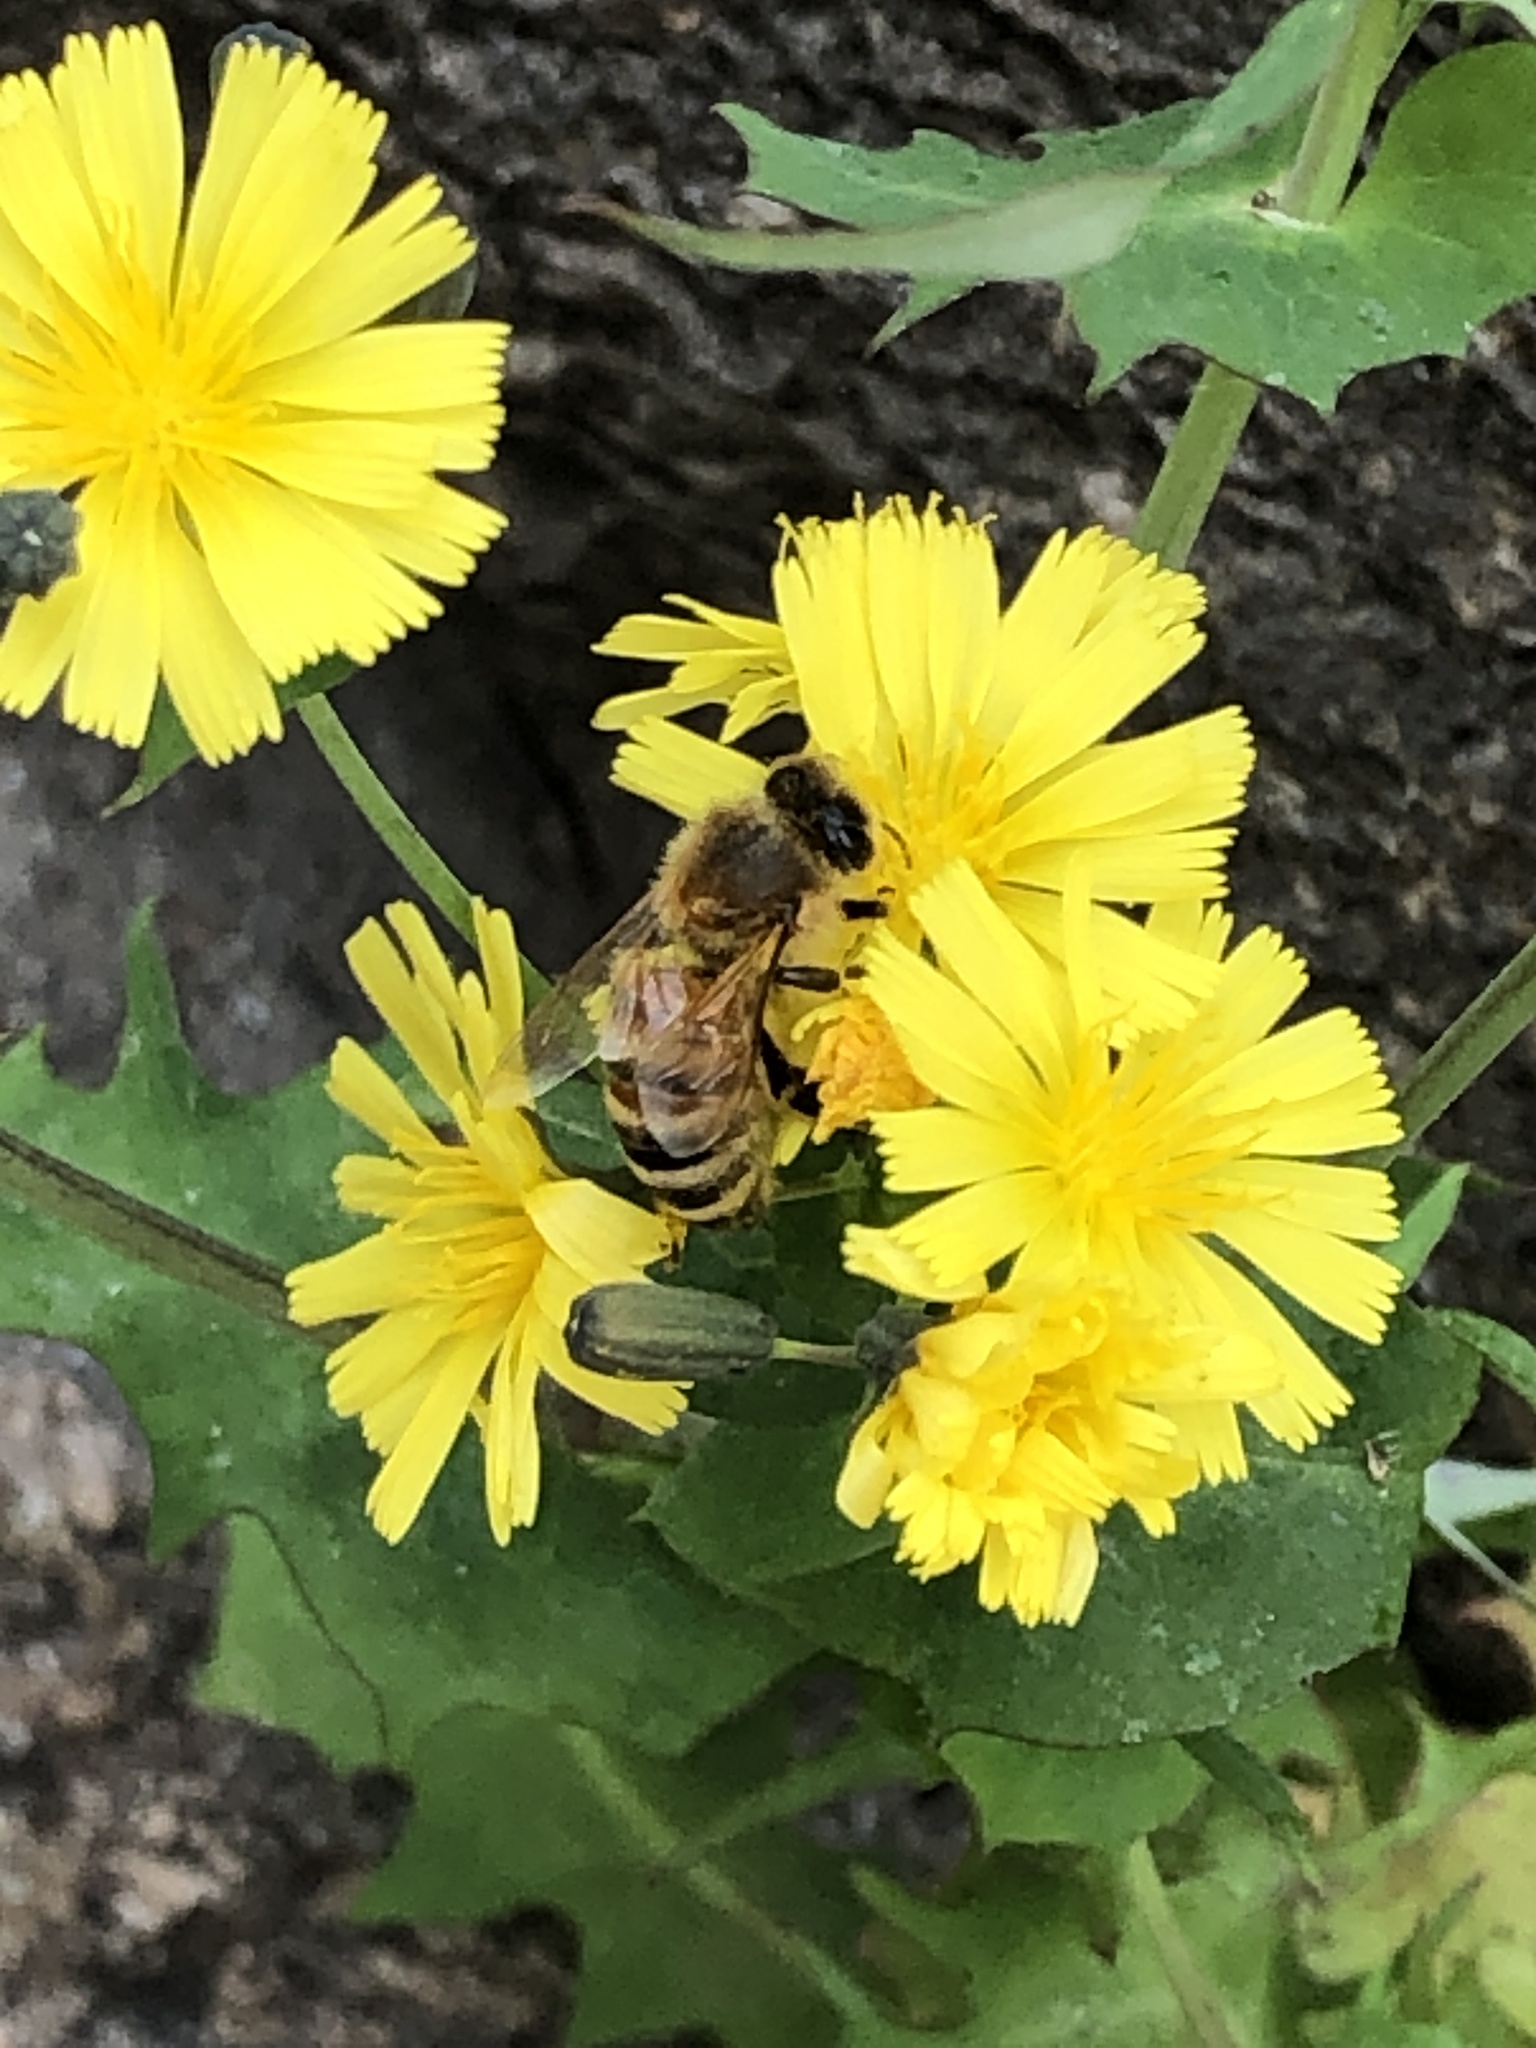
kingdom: Animalia
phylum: Arthropoda
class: Insecta
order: Hymenoptera
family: Apidae
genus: Apis
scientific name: Apis mellifera
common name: Honey bee
